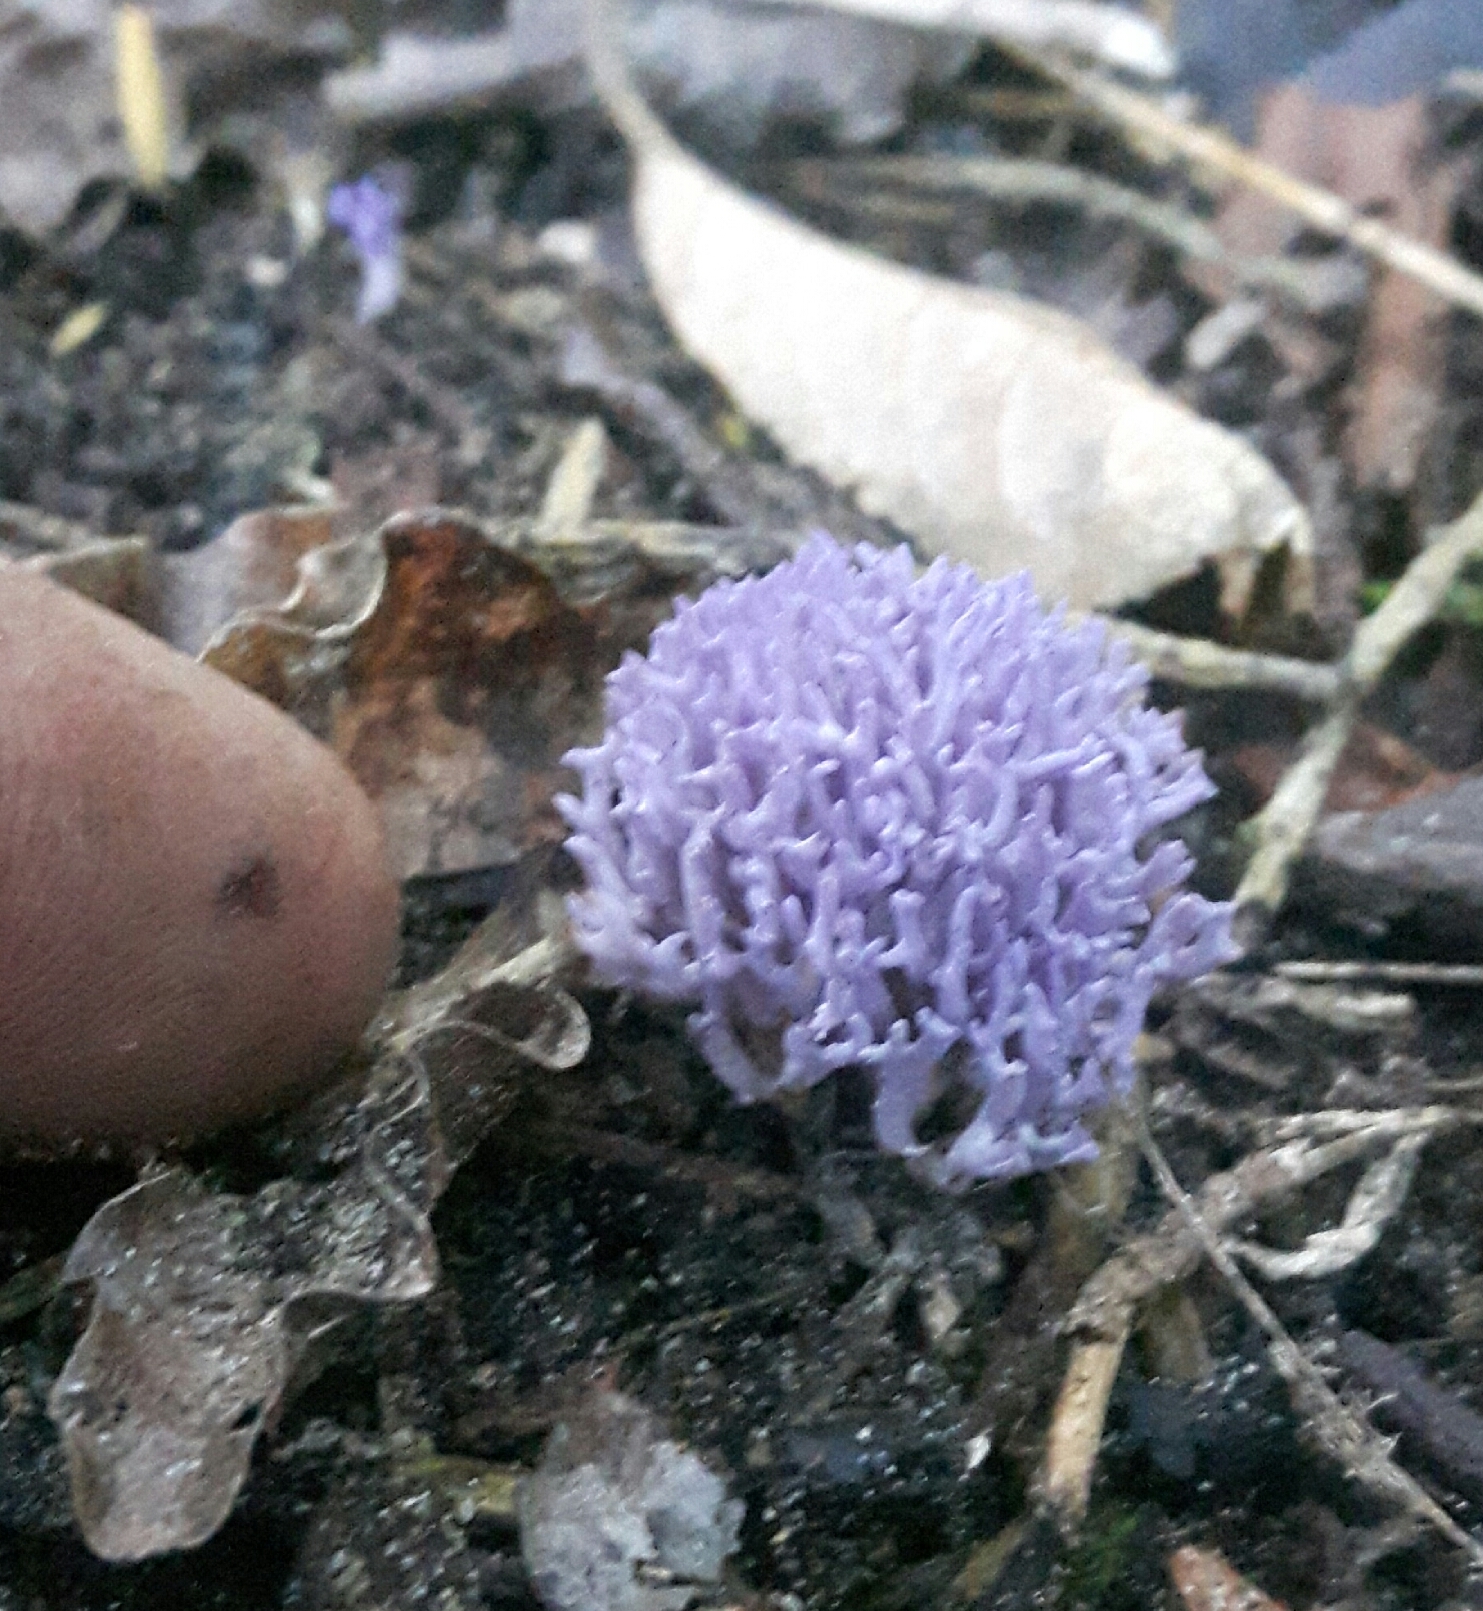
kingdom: Fungi
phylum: Basidiomycota
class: Agaricomycetes
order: Agaricales
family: Clavariaceae
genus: Ramariopsis
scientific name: Ramariopsis pulchella
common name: Lilac coral
